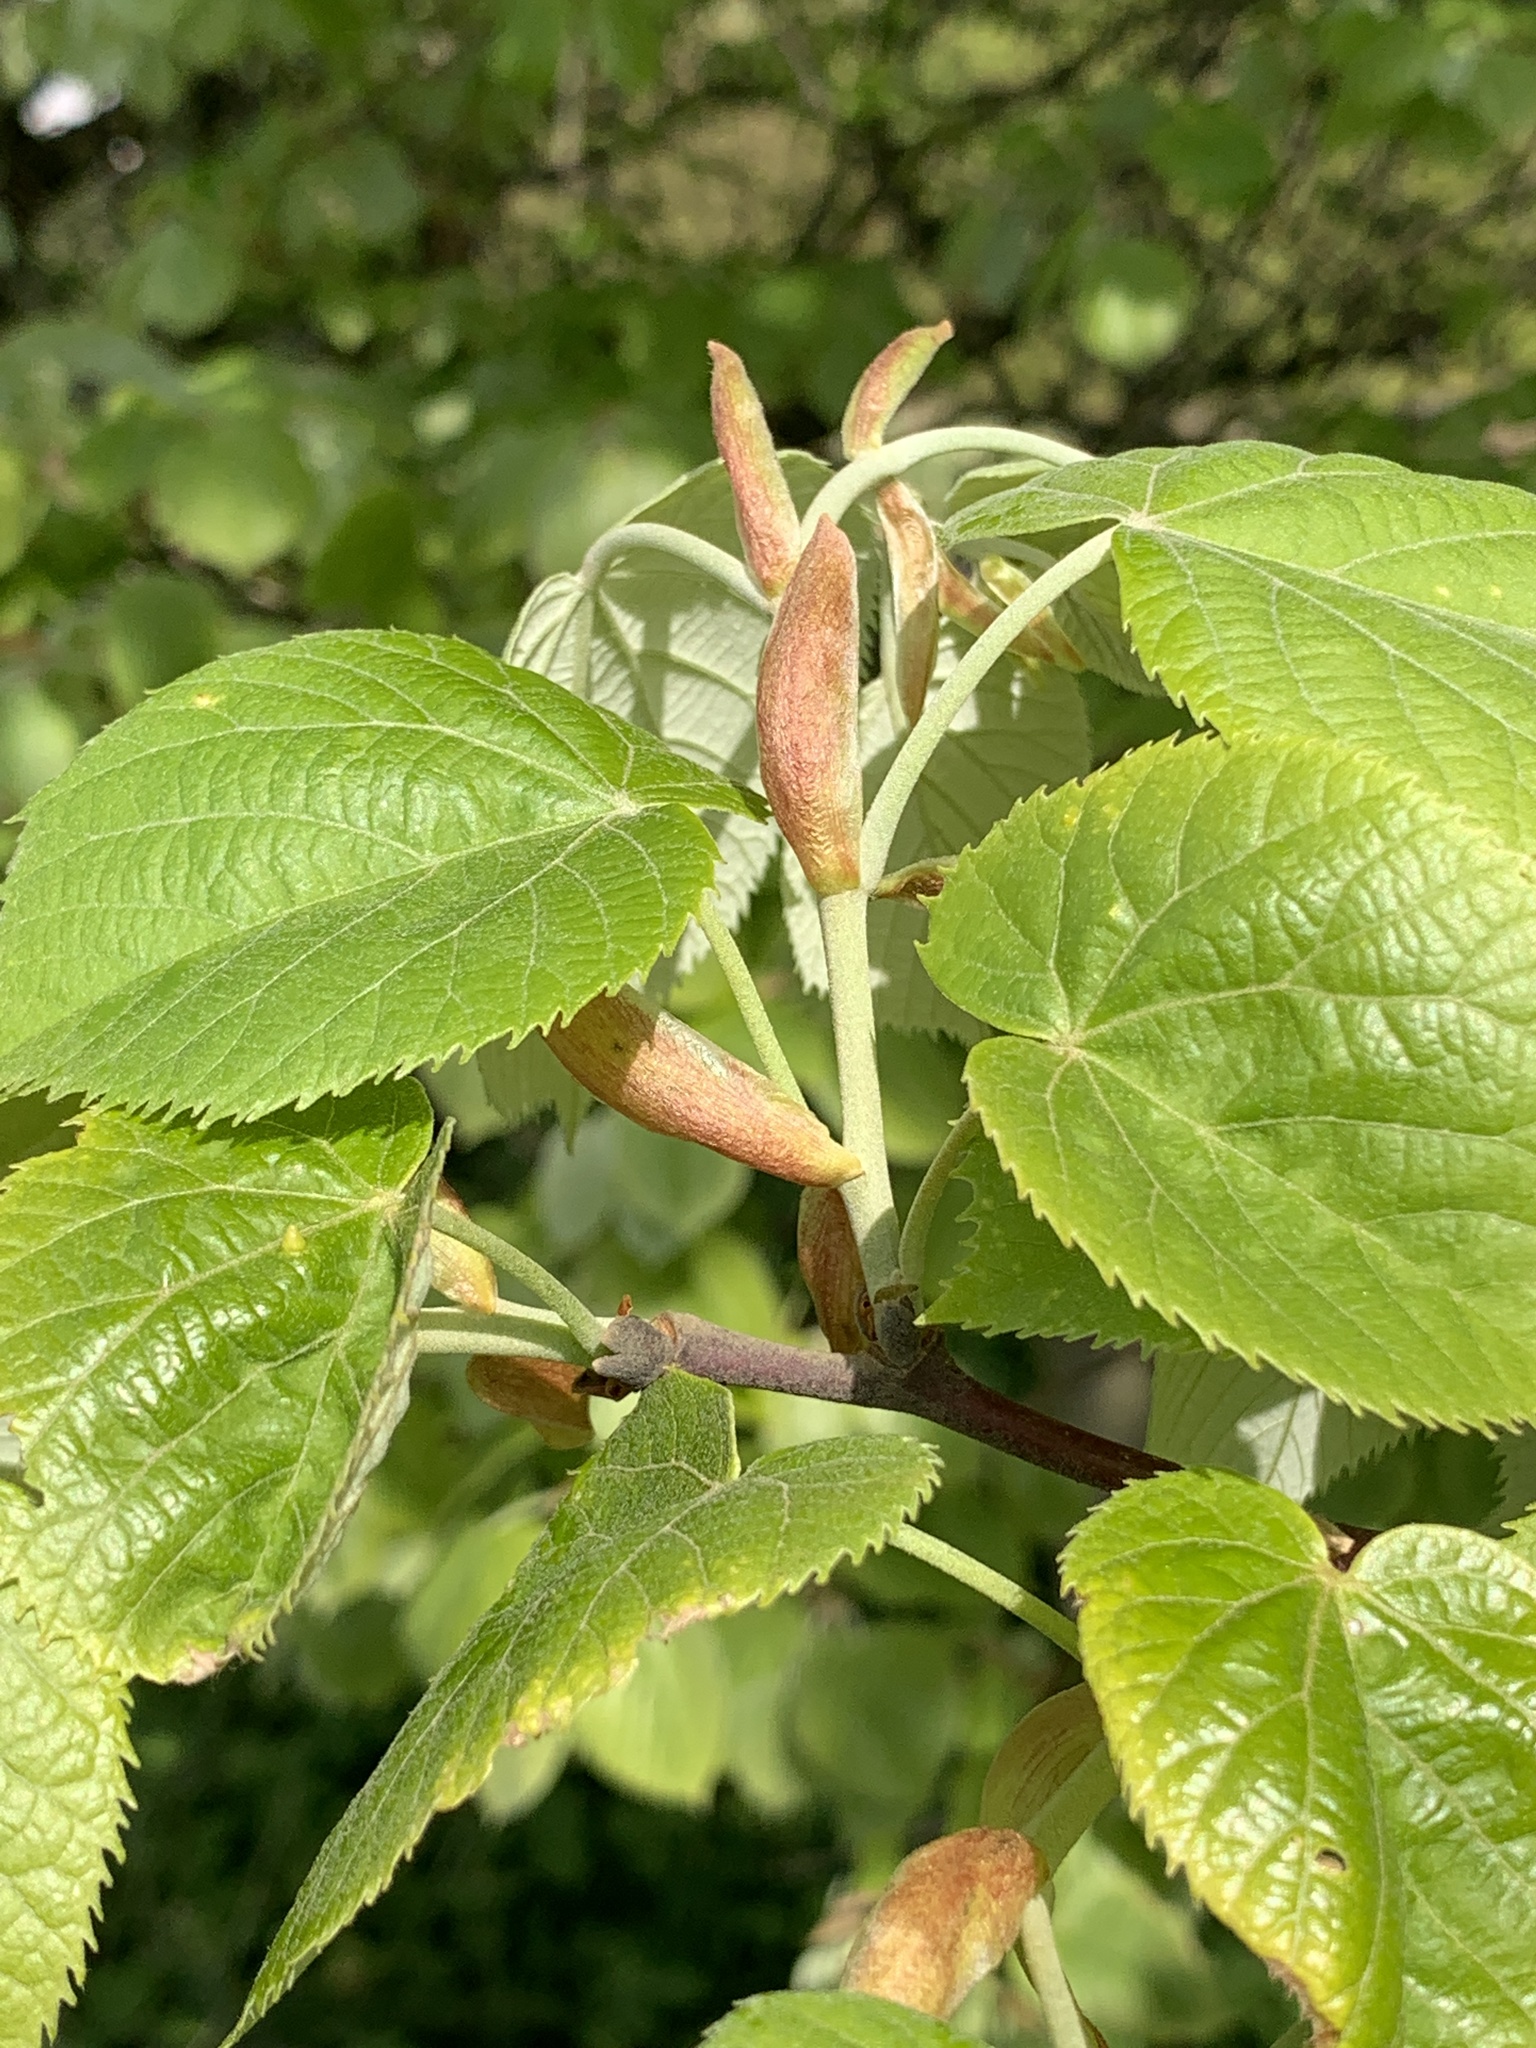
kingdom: Plantae
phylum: Tracheophyta
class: Magnoliopsida
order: Malvales
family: Malvaceae
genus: Tilia
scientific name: Tilia tomentosa
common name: Silver lime
